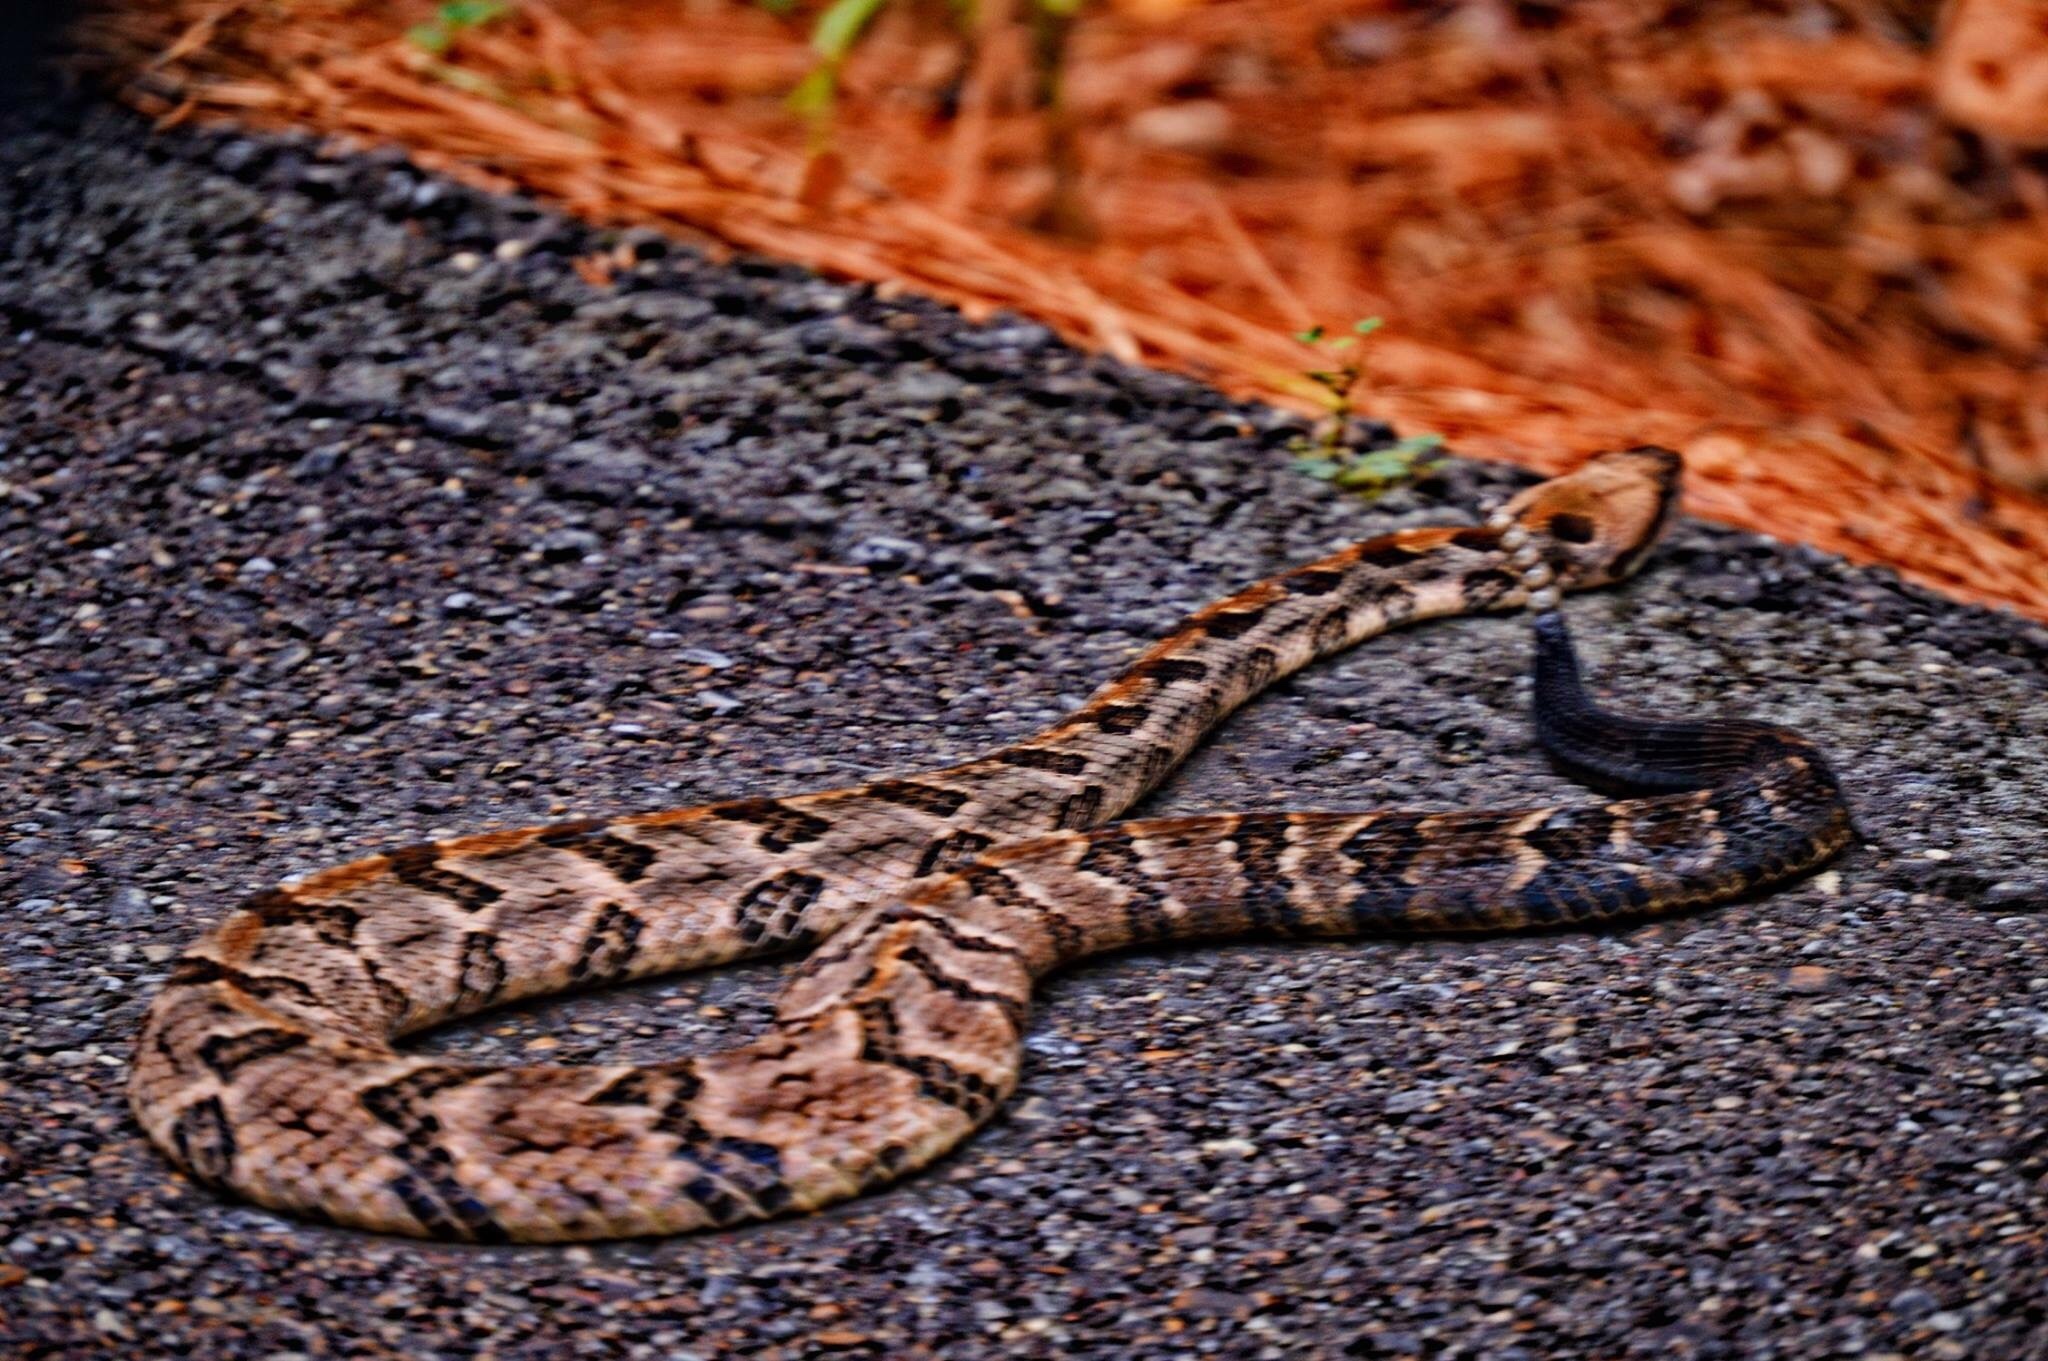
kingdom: Animalia
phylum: Chordata
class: Squamata
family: Viperidae
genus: Crotalus
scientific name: Crotalus horridus
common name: Timber rattlesnake
